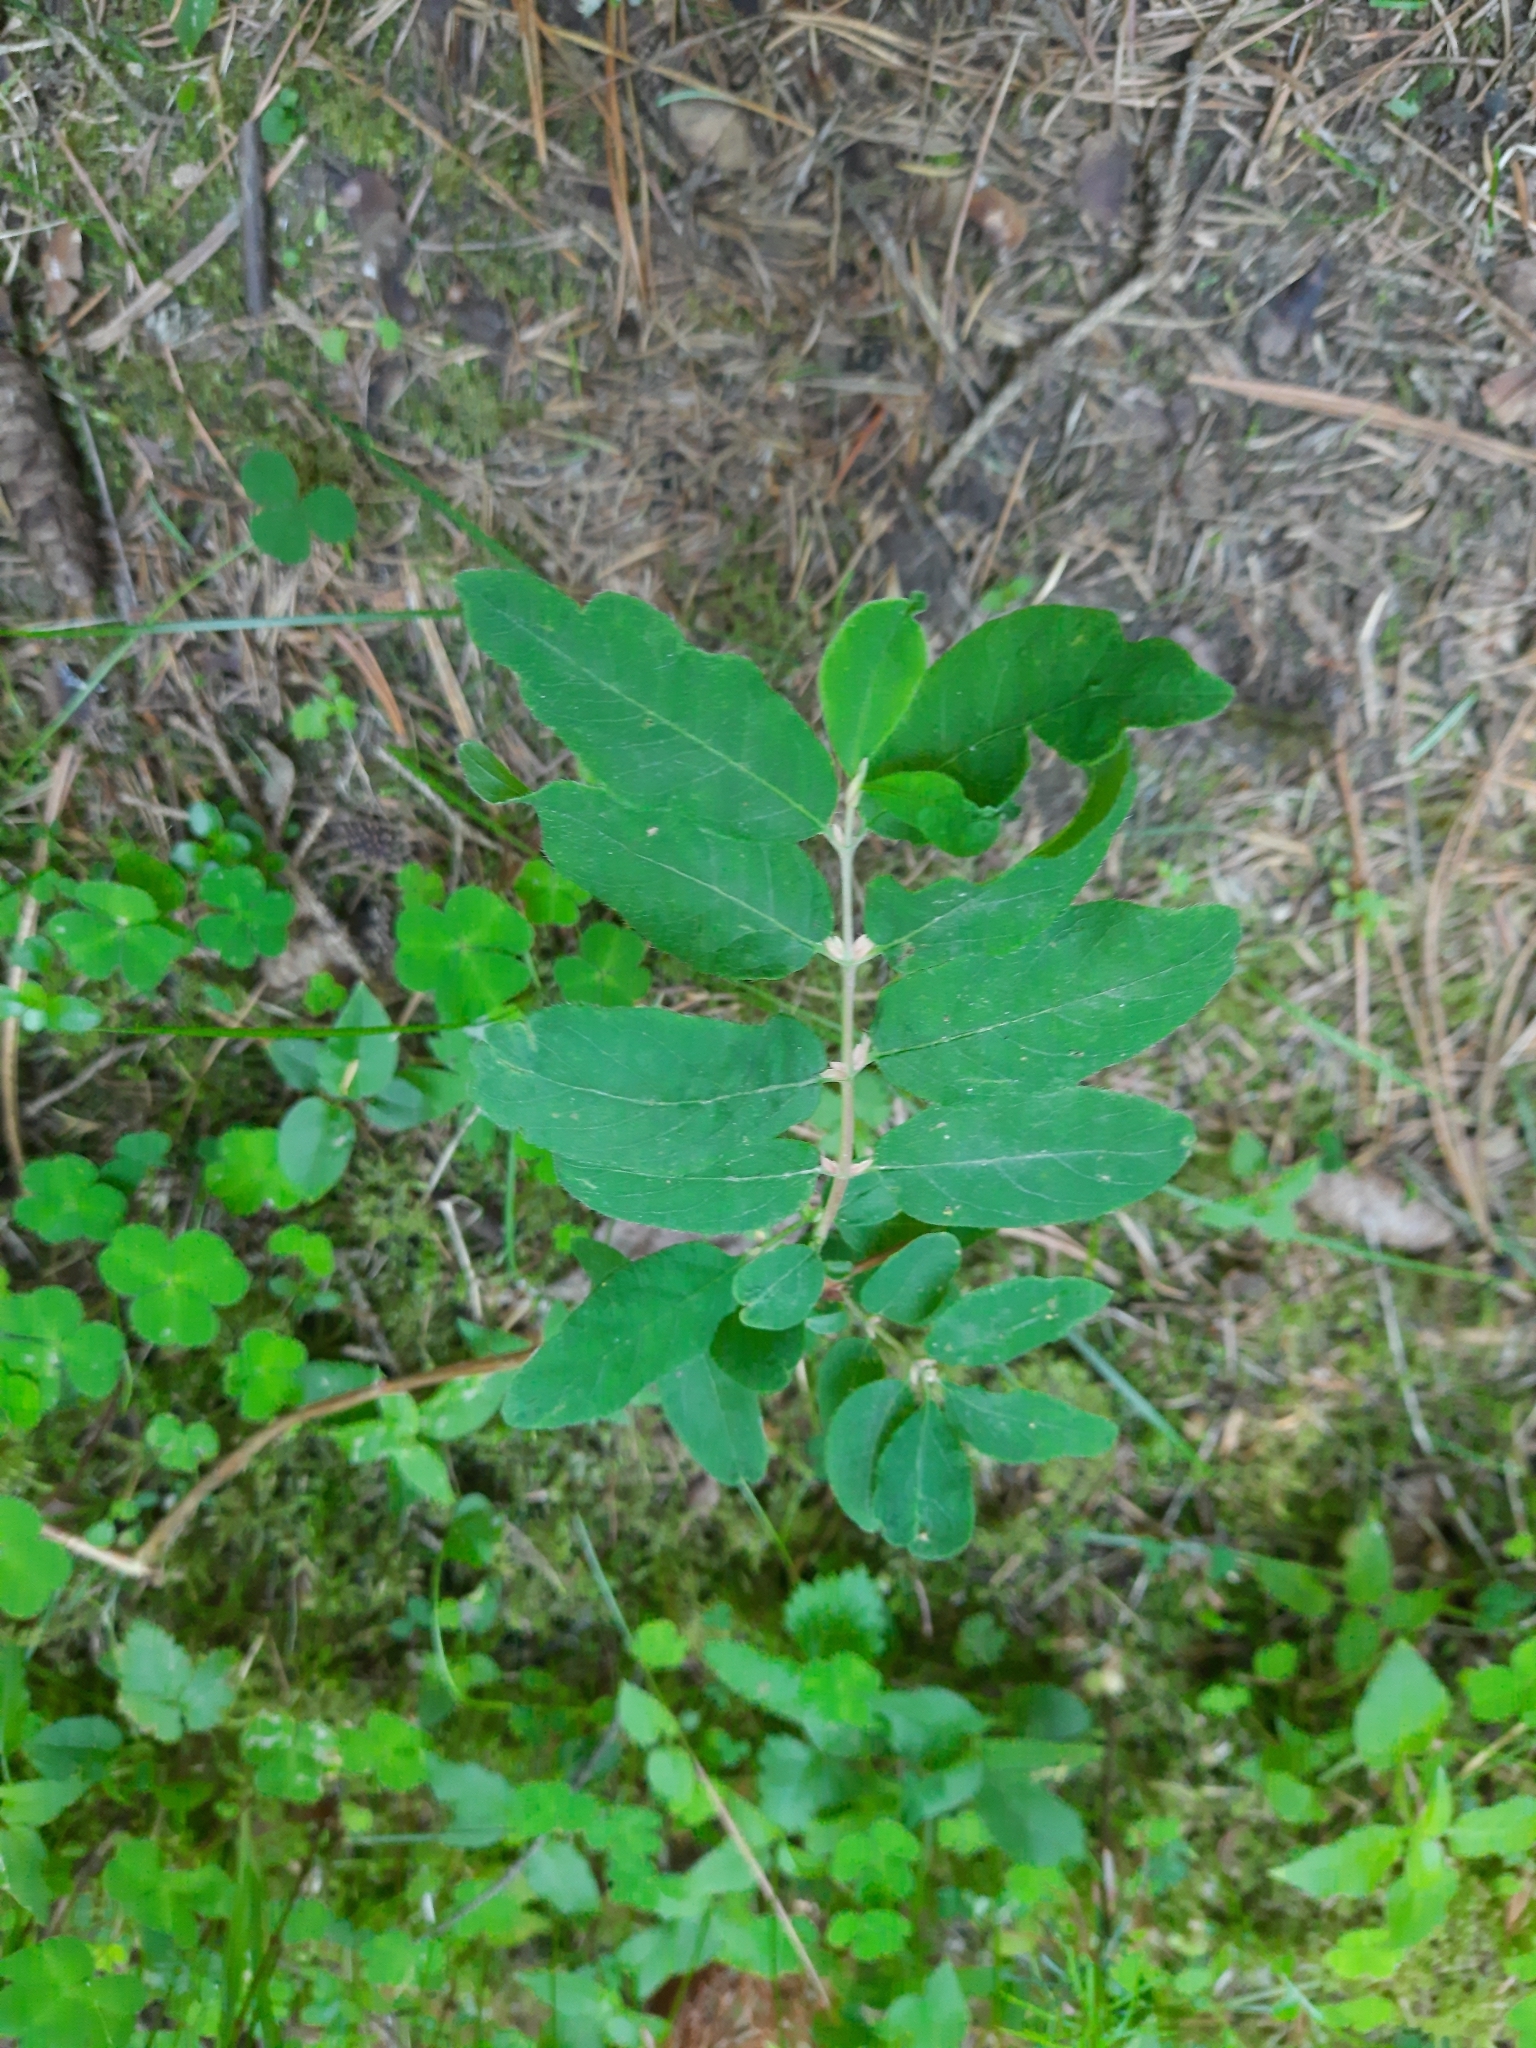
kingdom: Plantae
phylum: Tracheophyta
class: Magnoliopsida
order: Dipsacales
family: Caprifoliaceae
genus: Lonicera
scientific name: Lonicera caerulea
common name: Blue honeysuckle
